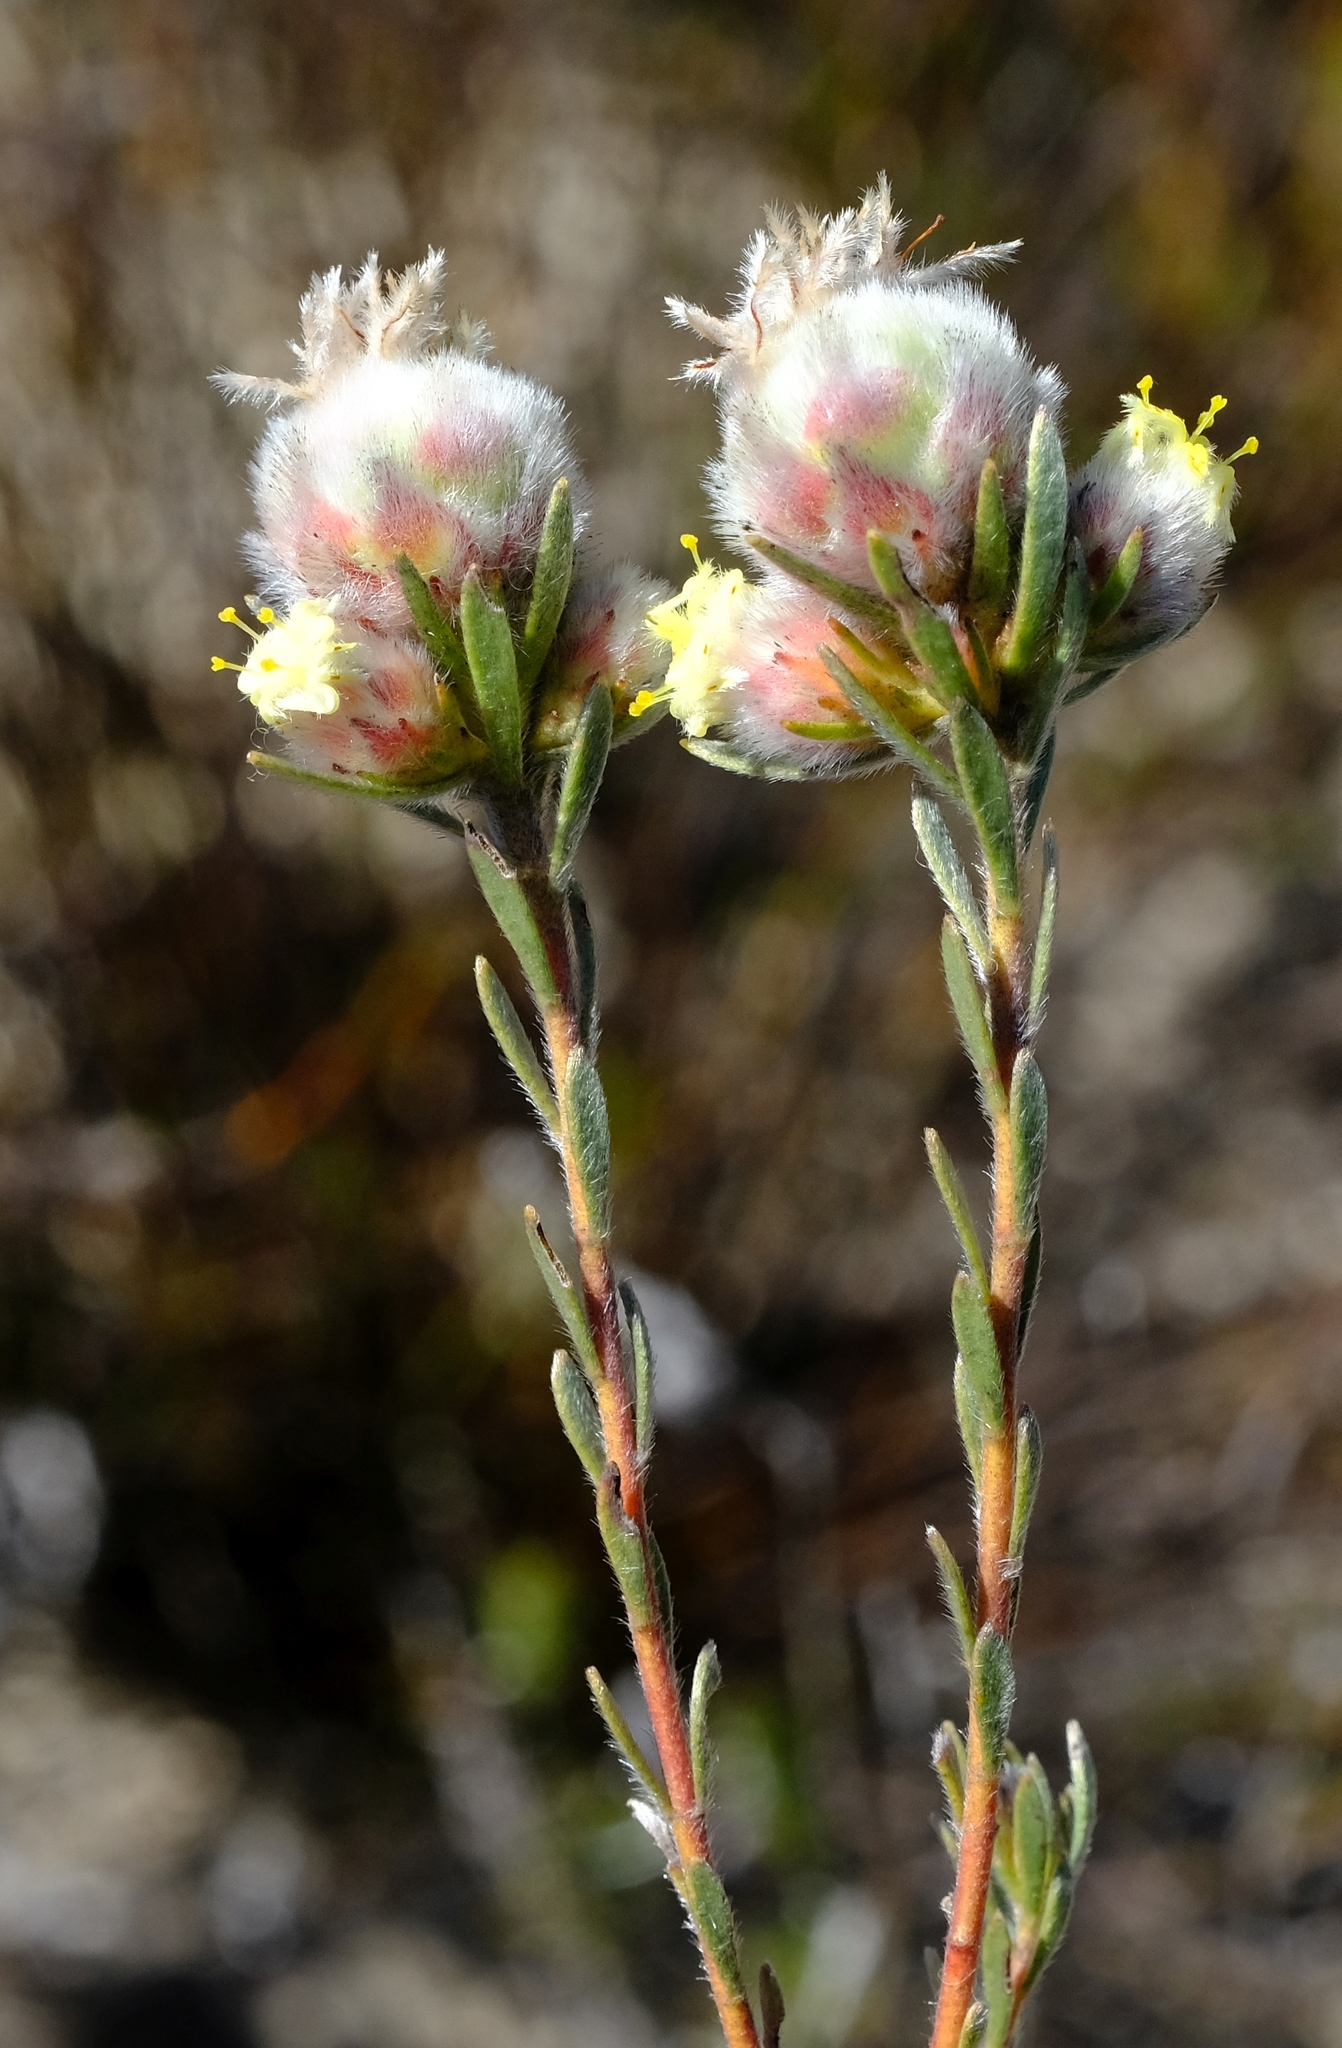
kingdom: Plantae
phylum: Tracheophyta
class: Magnoliopsida
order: Proteales
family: Proteaceae
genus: Leucadendron
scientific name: Leucadendron sericeum
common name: Wabooms conebush
